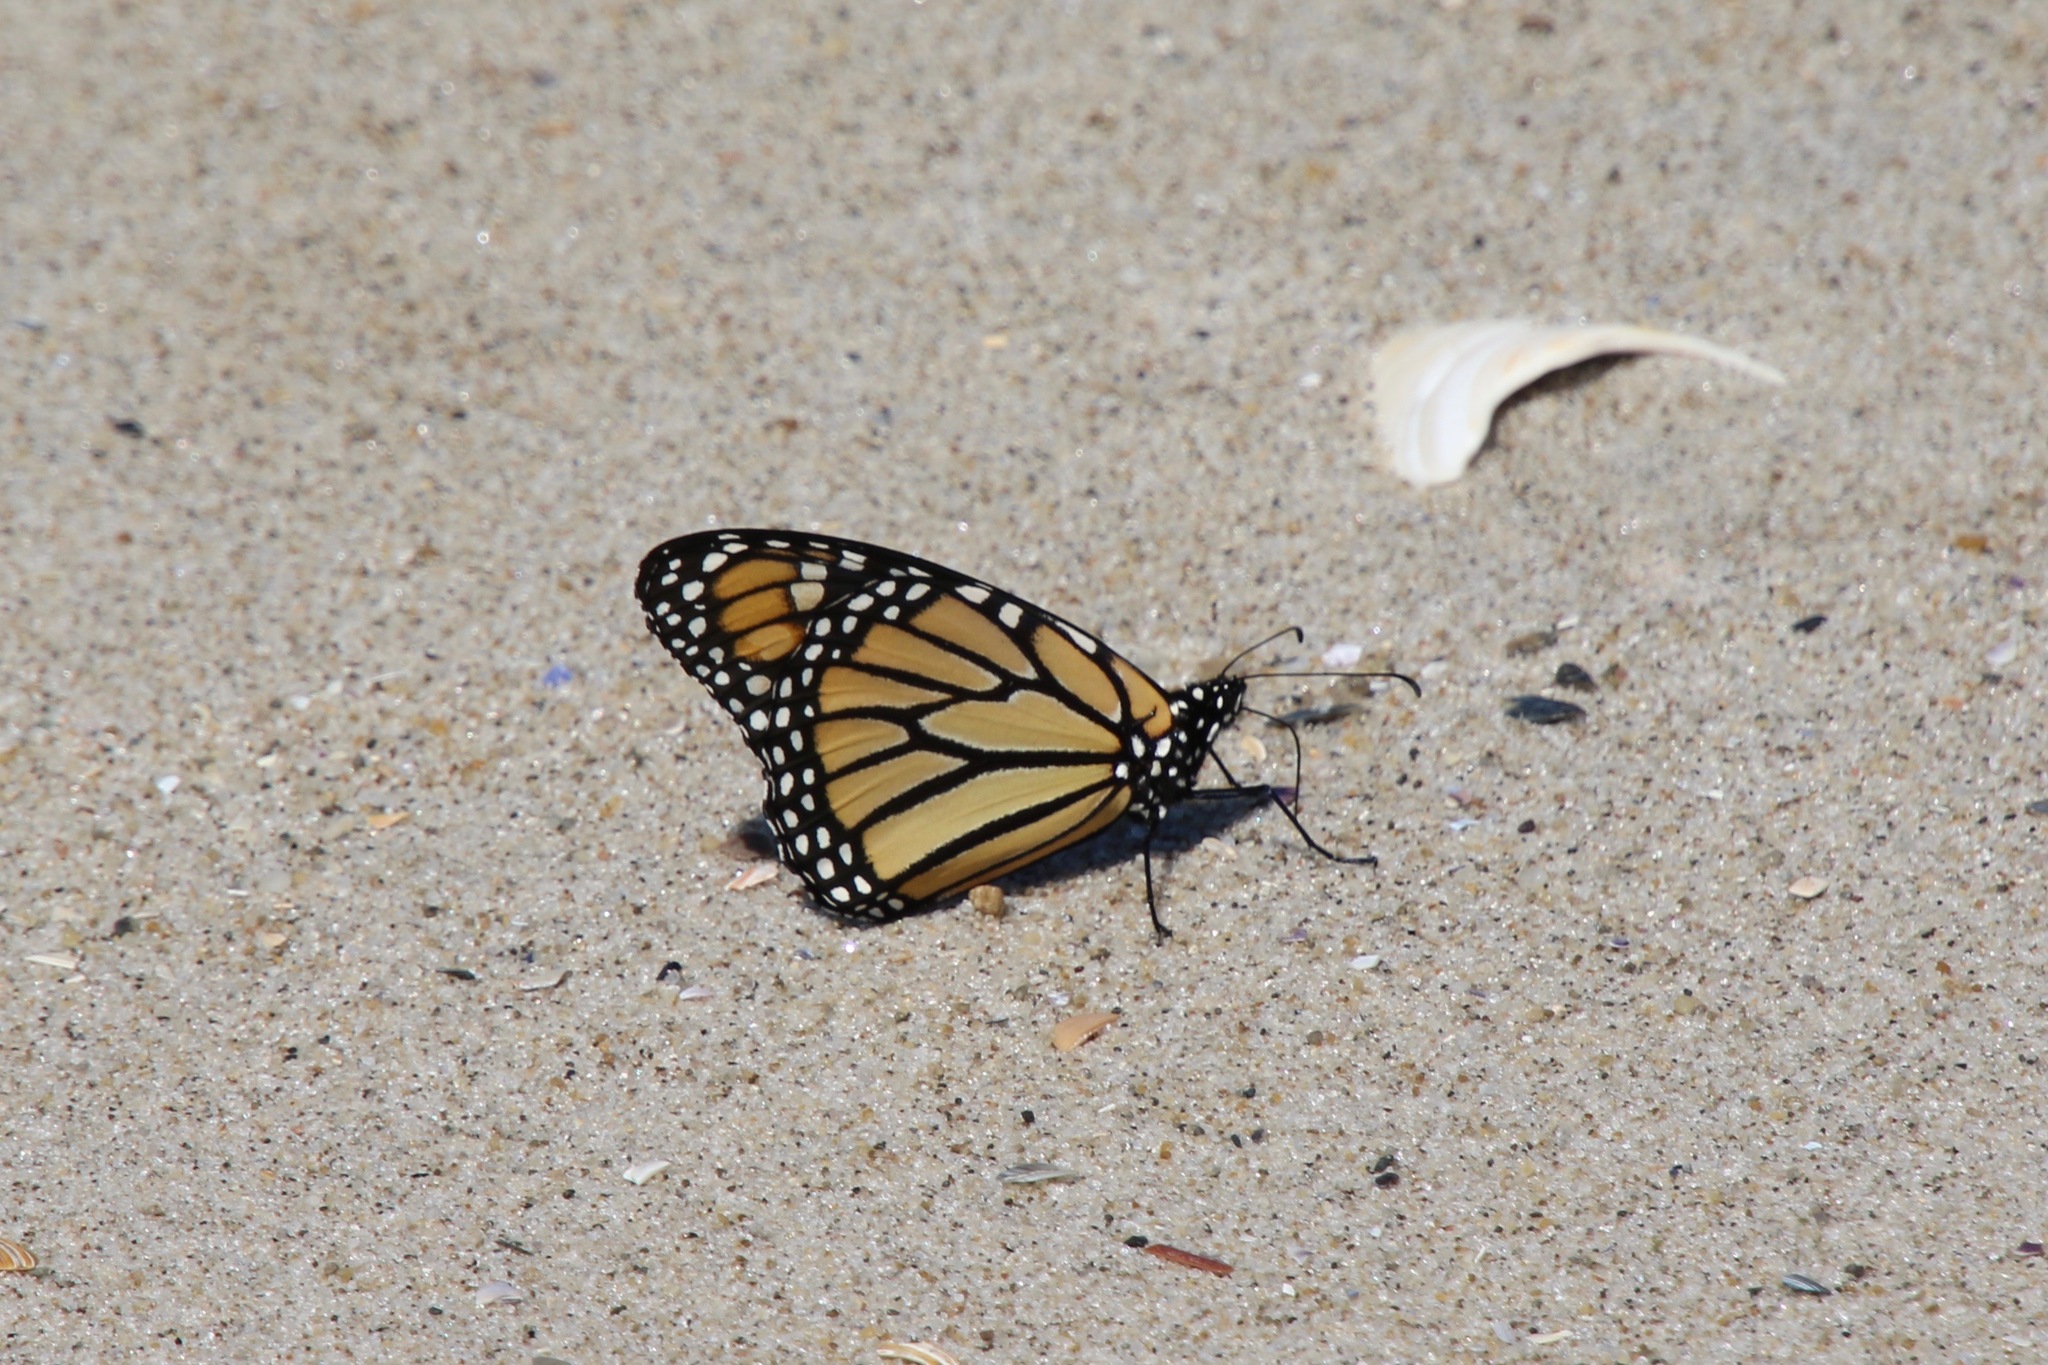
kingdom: Animalia
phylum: Arthropoda
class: Insecta
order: Lepidoptera
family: Nymphalidae
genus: Danaus
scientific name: Danaus plexippus
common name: Monarch
